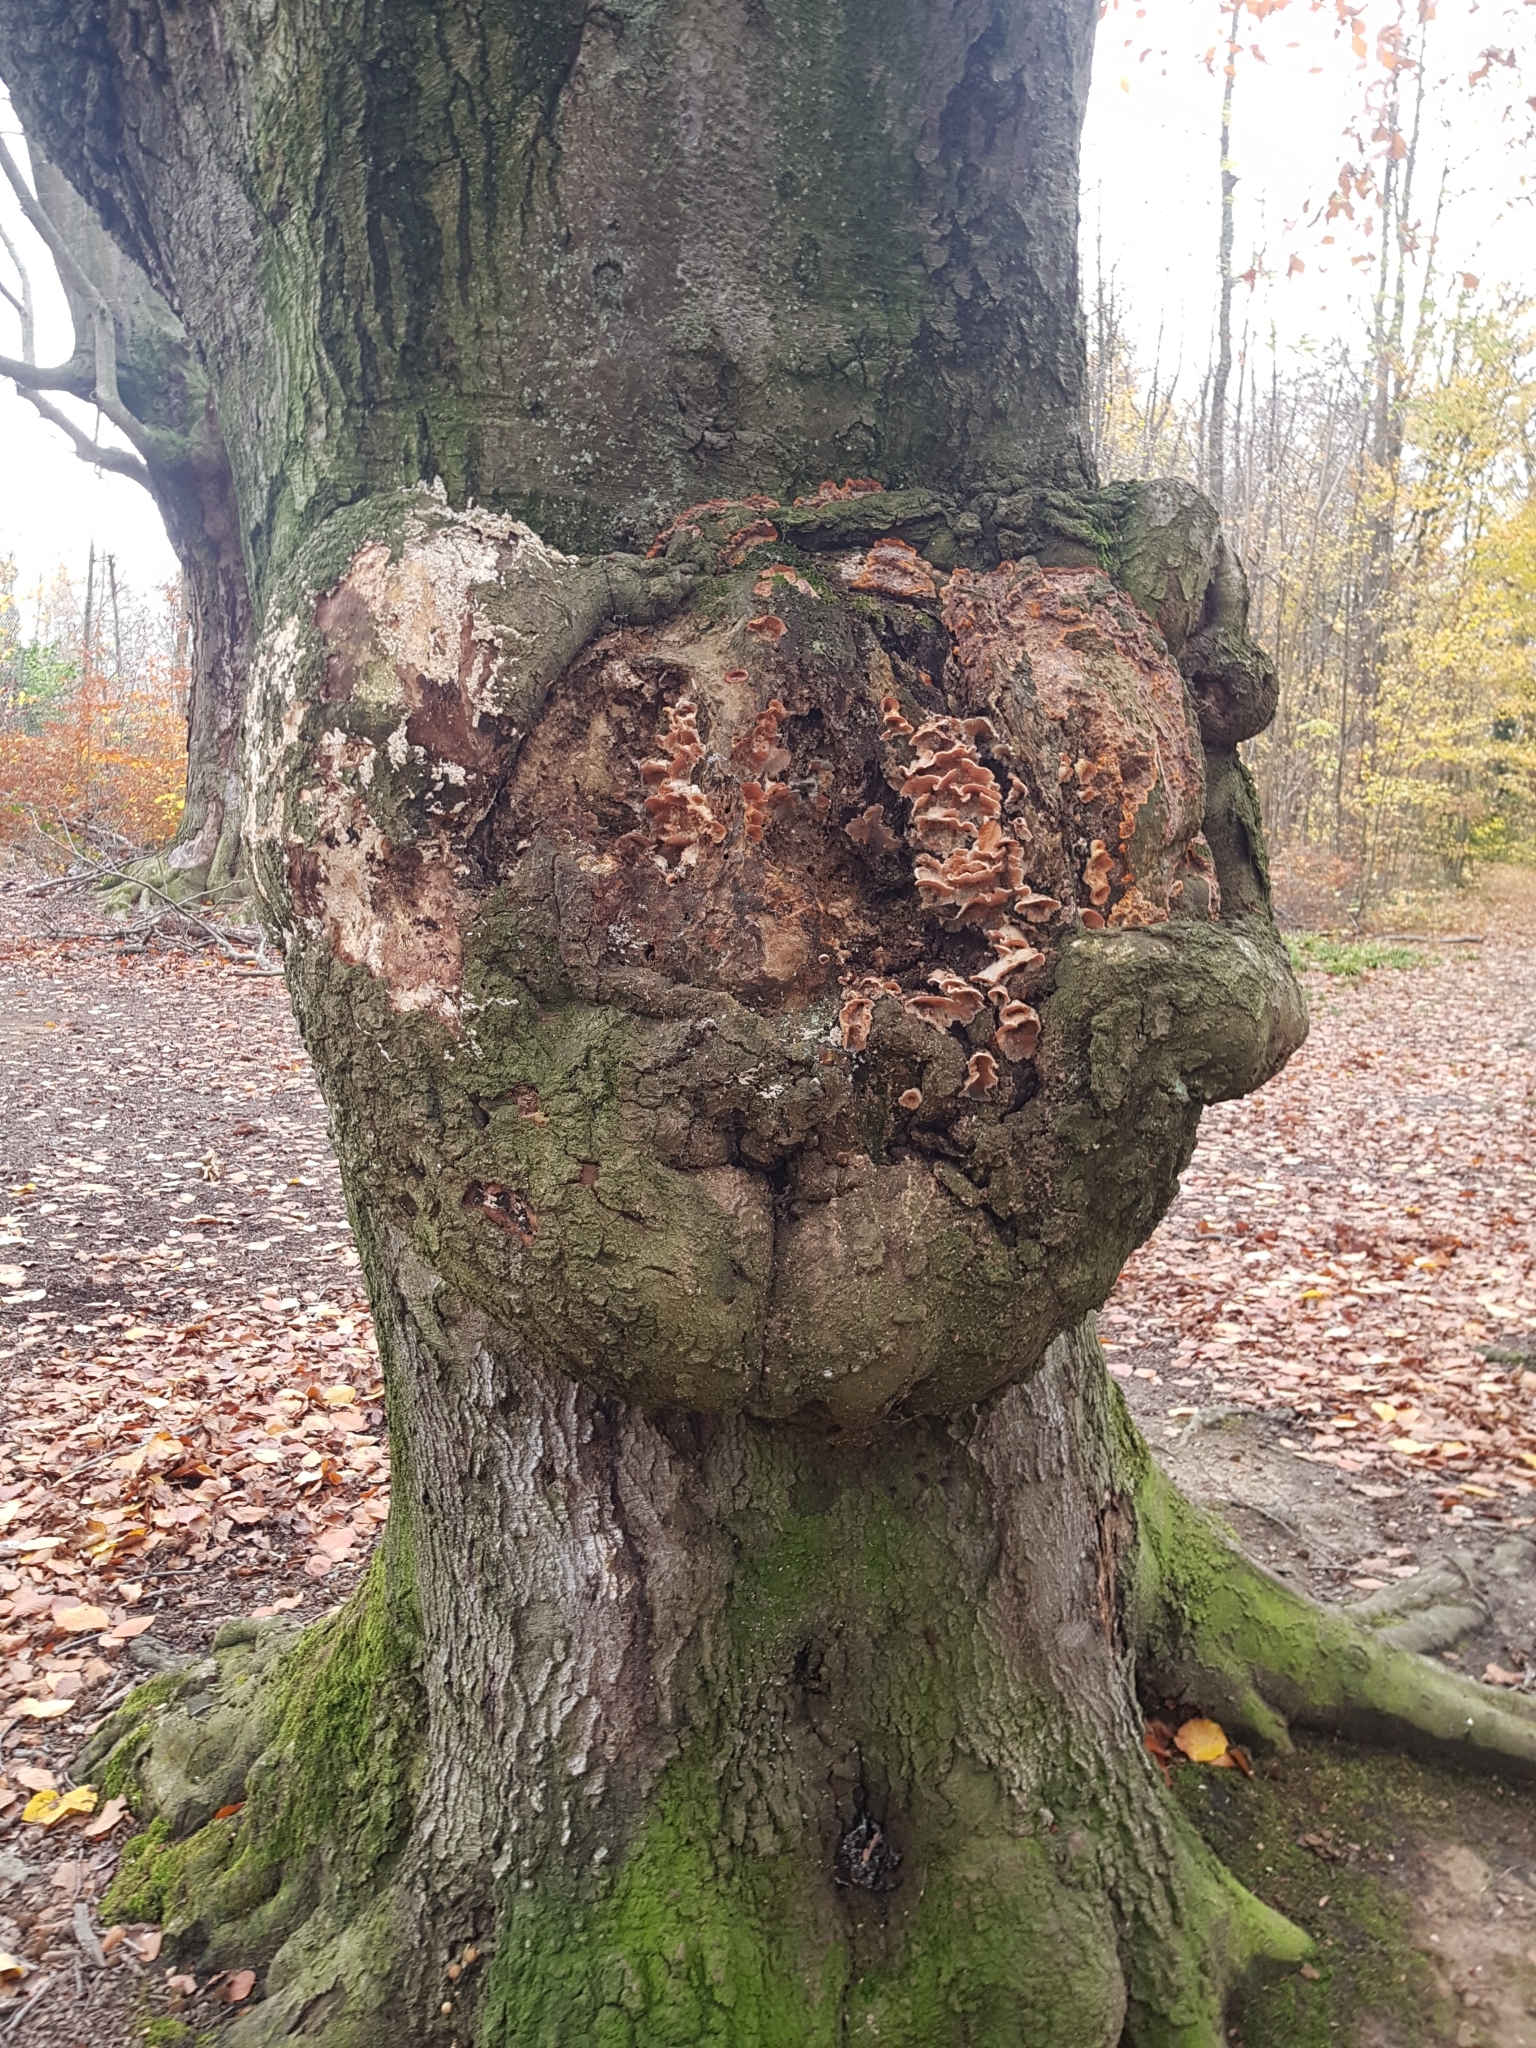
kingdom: Fungi
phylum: Basidiomycota
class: Agaricomycetes
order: Polyporales
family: Meruliaceae
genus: Phlebia
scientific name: Phlebia tremellosa
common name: Jelly rot
